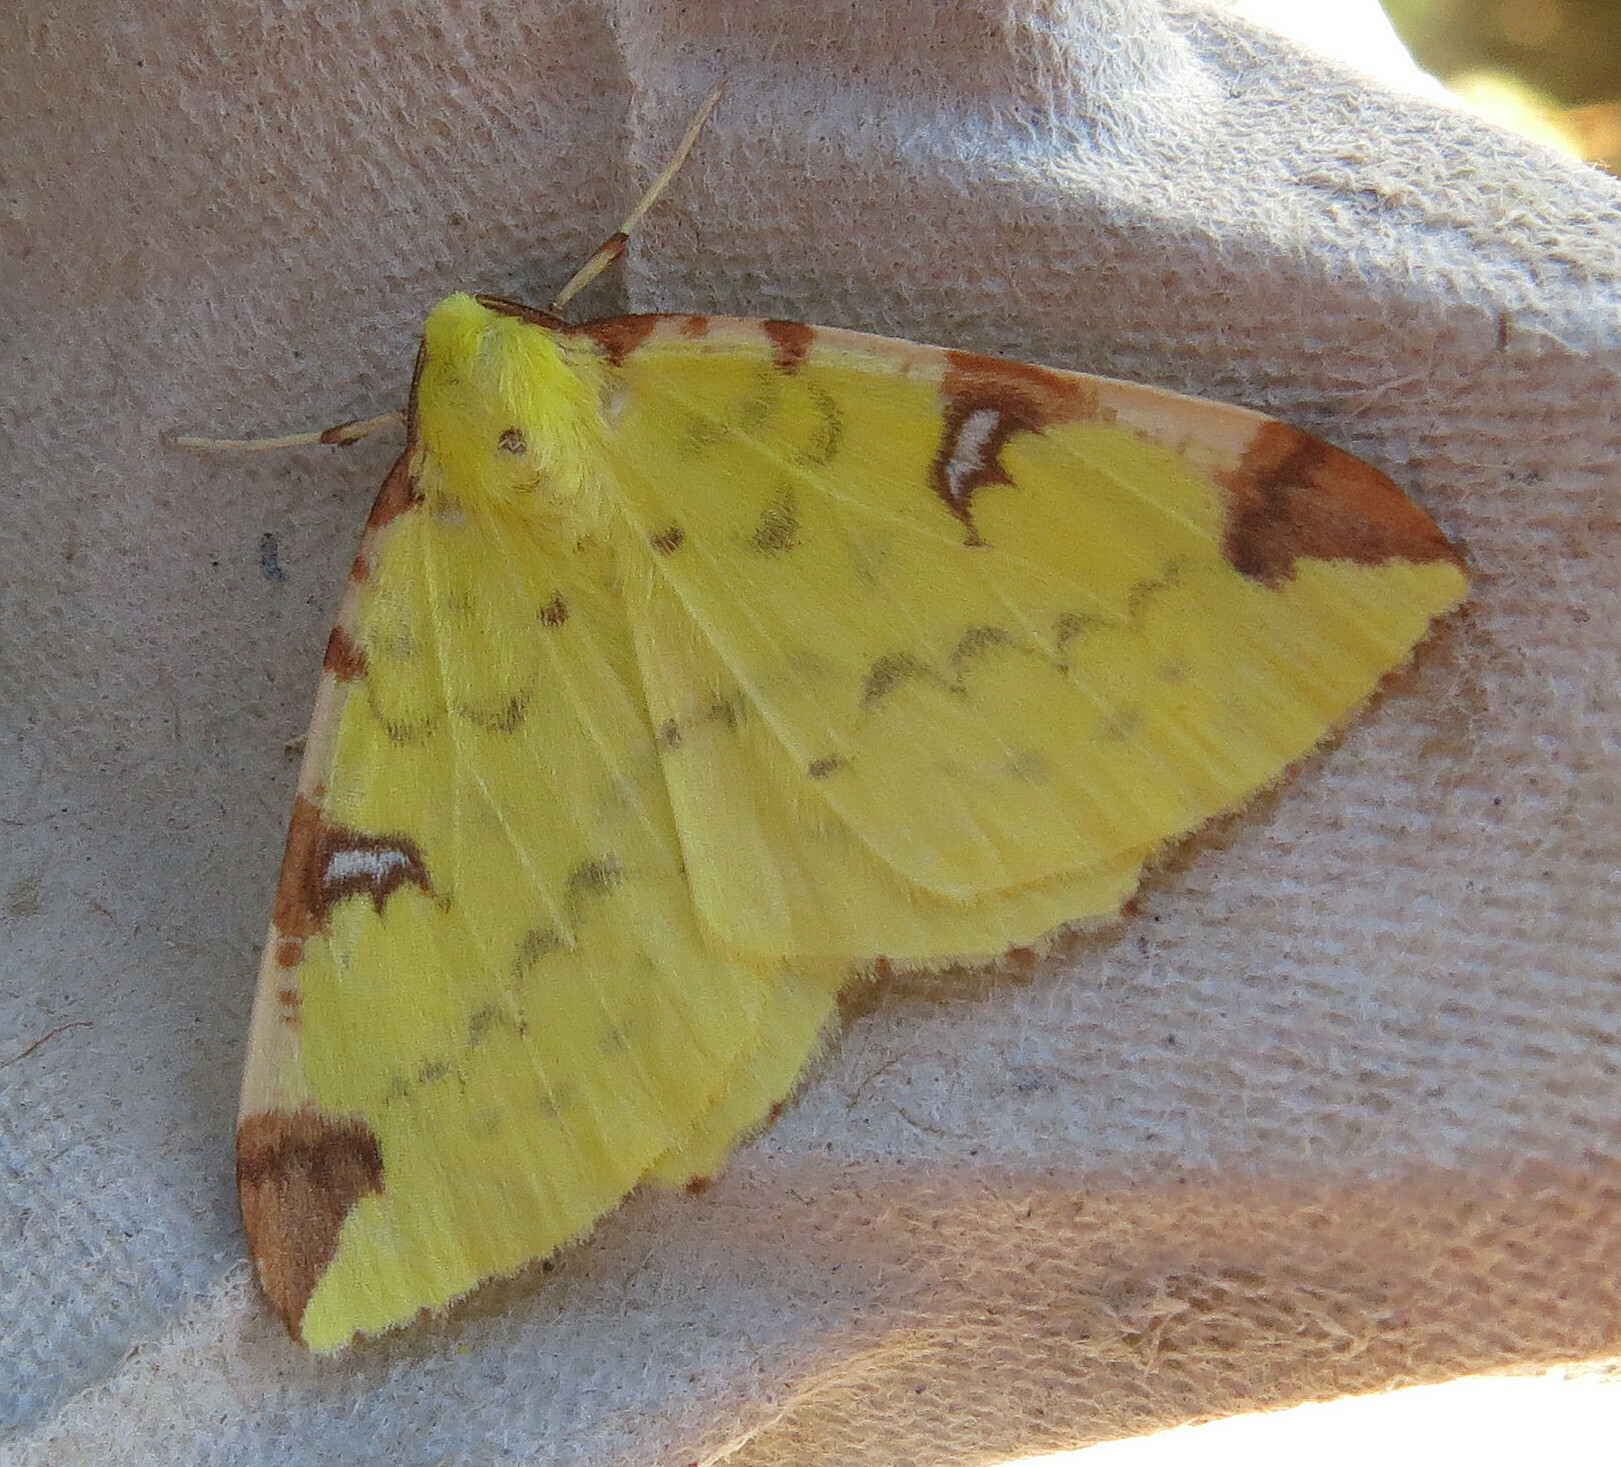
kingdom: Animalia
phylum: Arthropoda
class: Insecta
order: Lepidoptera
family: Geometridae
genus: Opisthograptis
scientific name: Opisthograptis luteolata
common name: Brimstone moth
